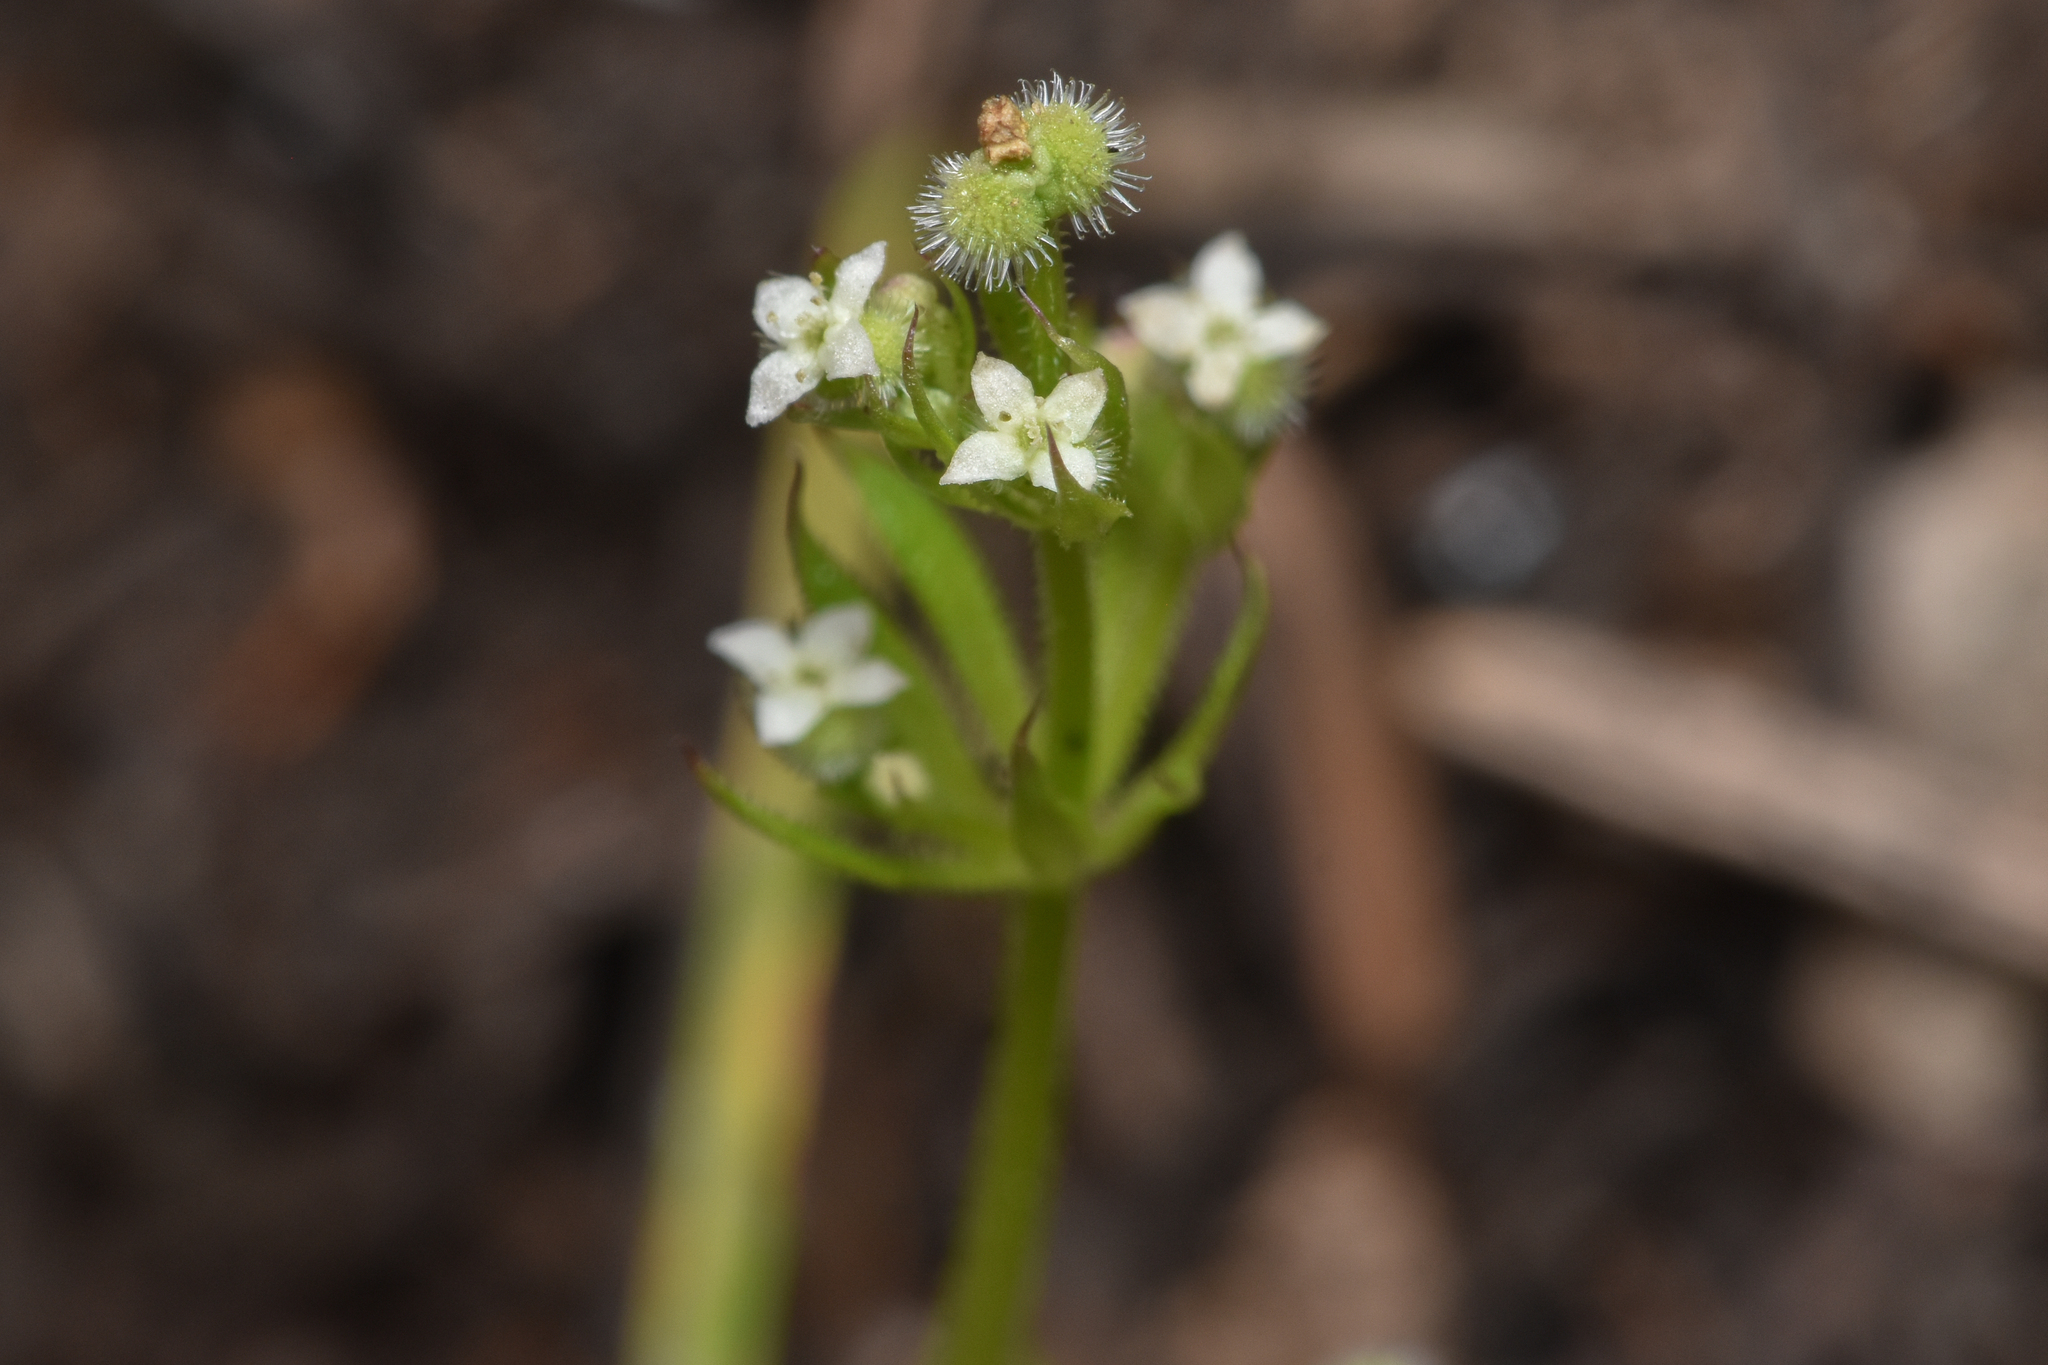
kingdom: Plantae
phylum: Tracheophyta
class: Magnoliopsida
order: Gentianales
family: Rubiaceae
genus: Galium
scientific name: Galium aparine
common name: Cleavers
